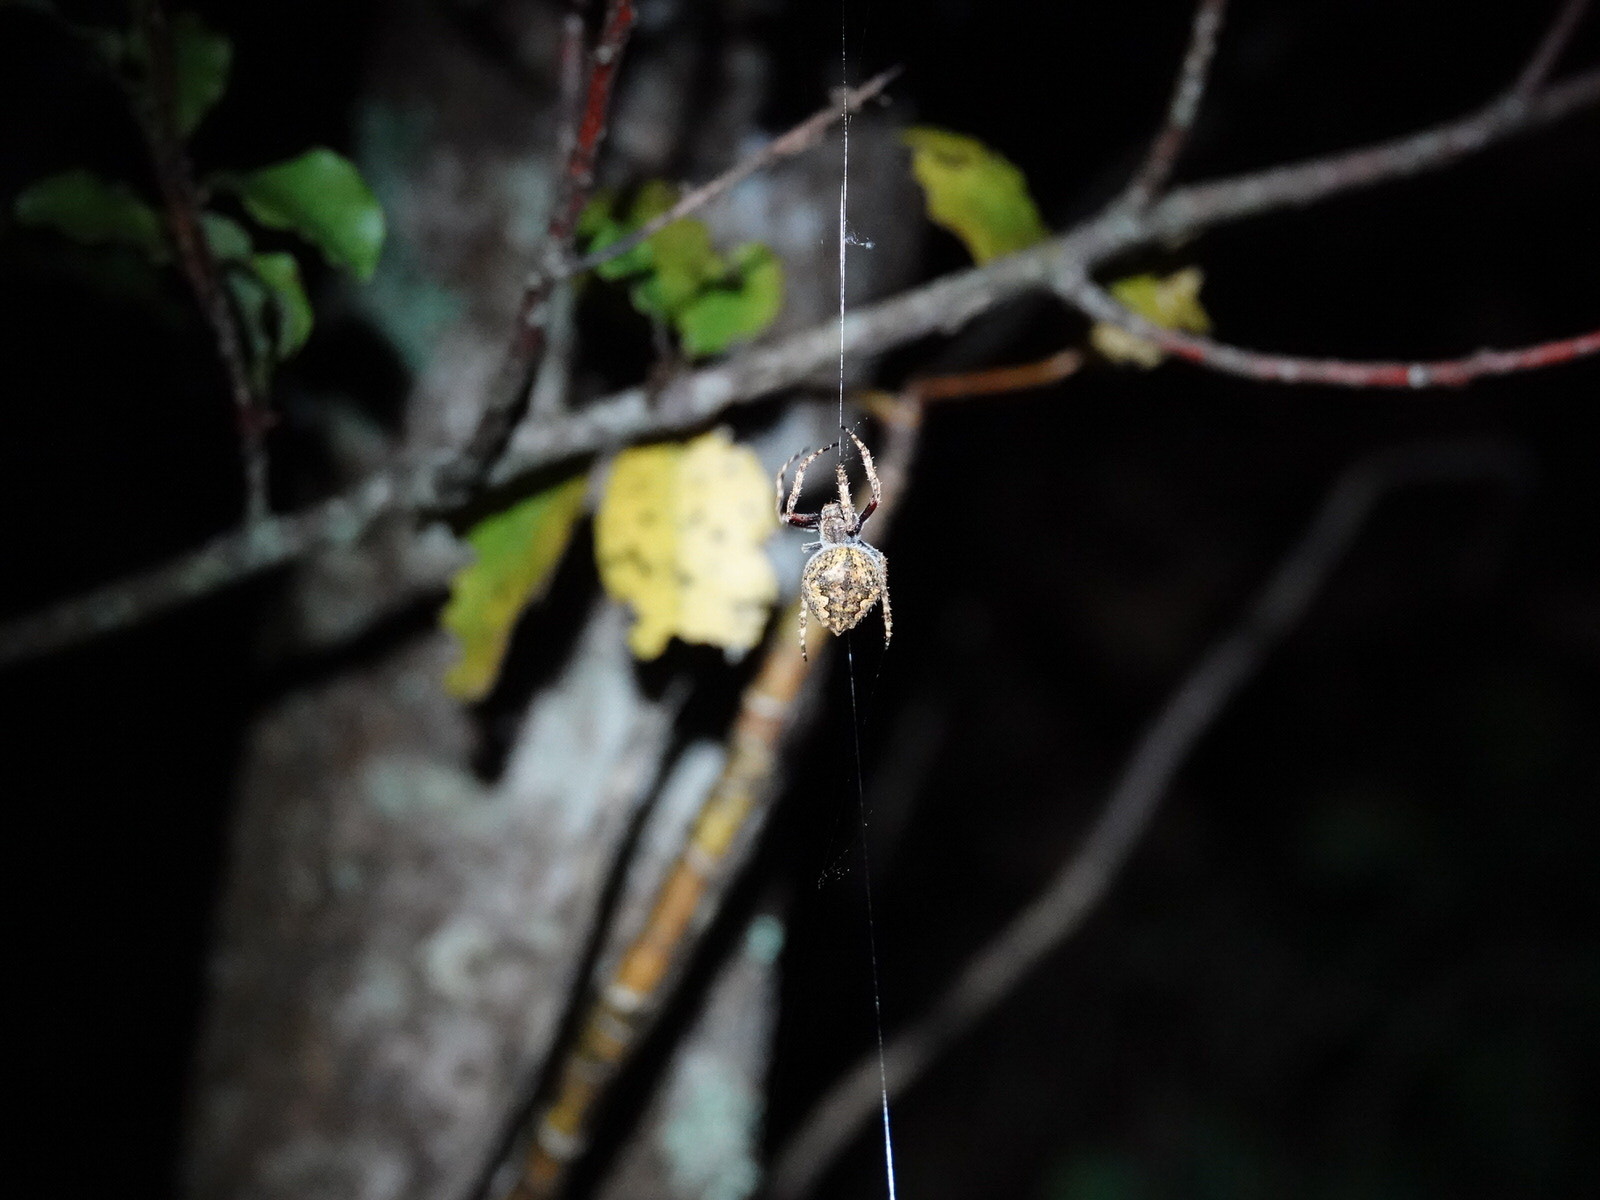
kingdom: Animalia
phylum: Arthropoda
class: Arachnida
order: Araneae
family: Araneidae
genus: Eriophora
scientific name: Eriophora pustulosa
